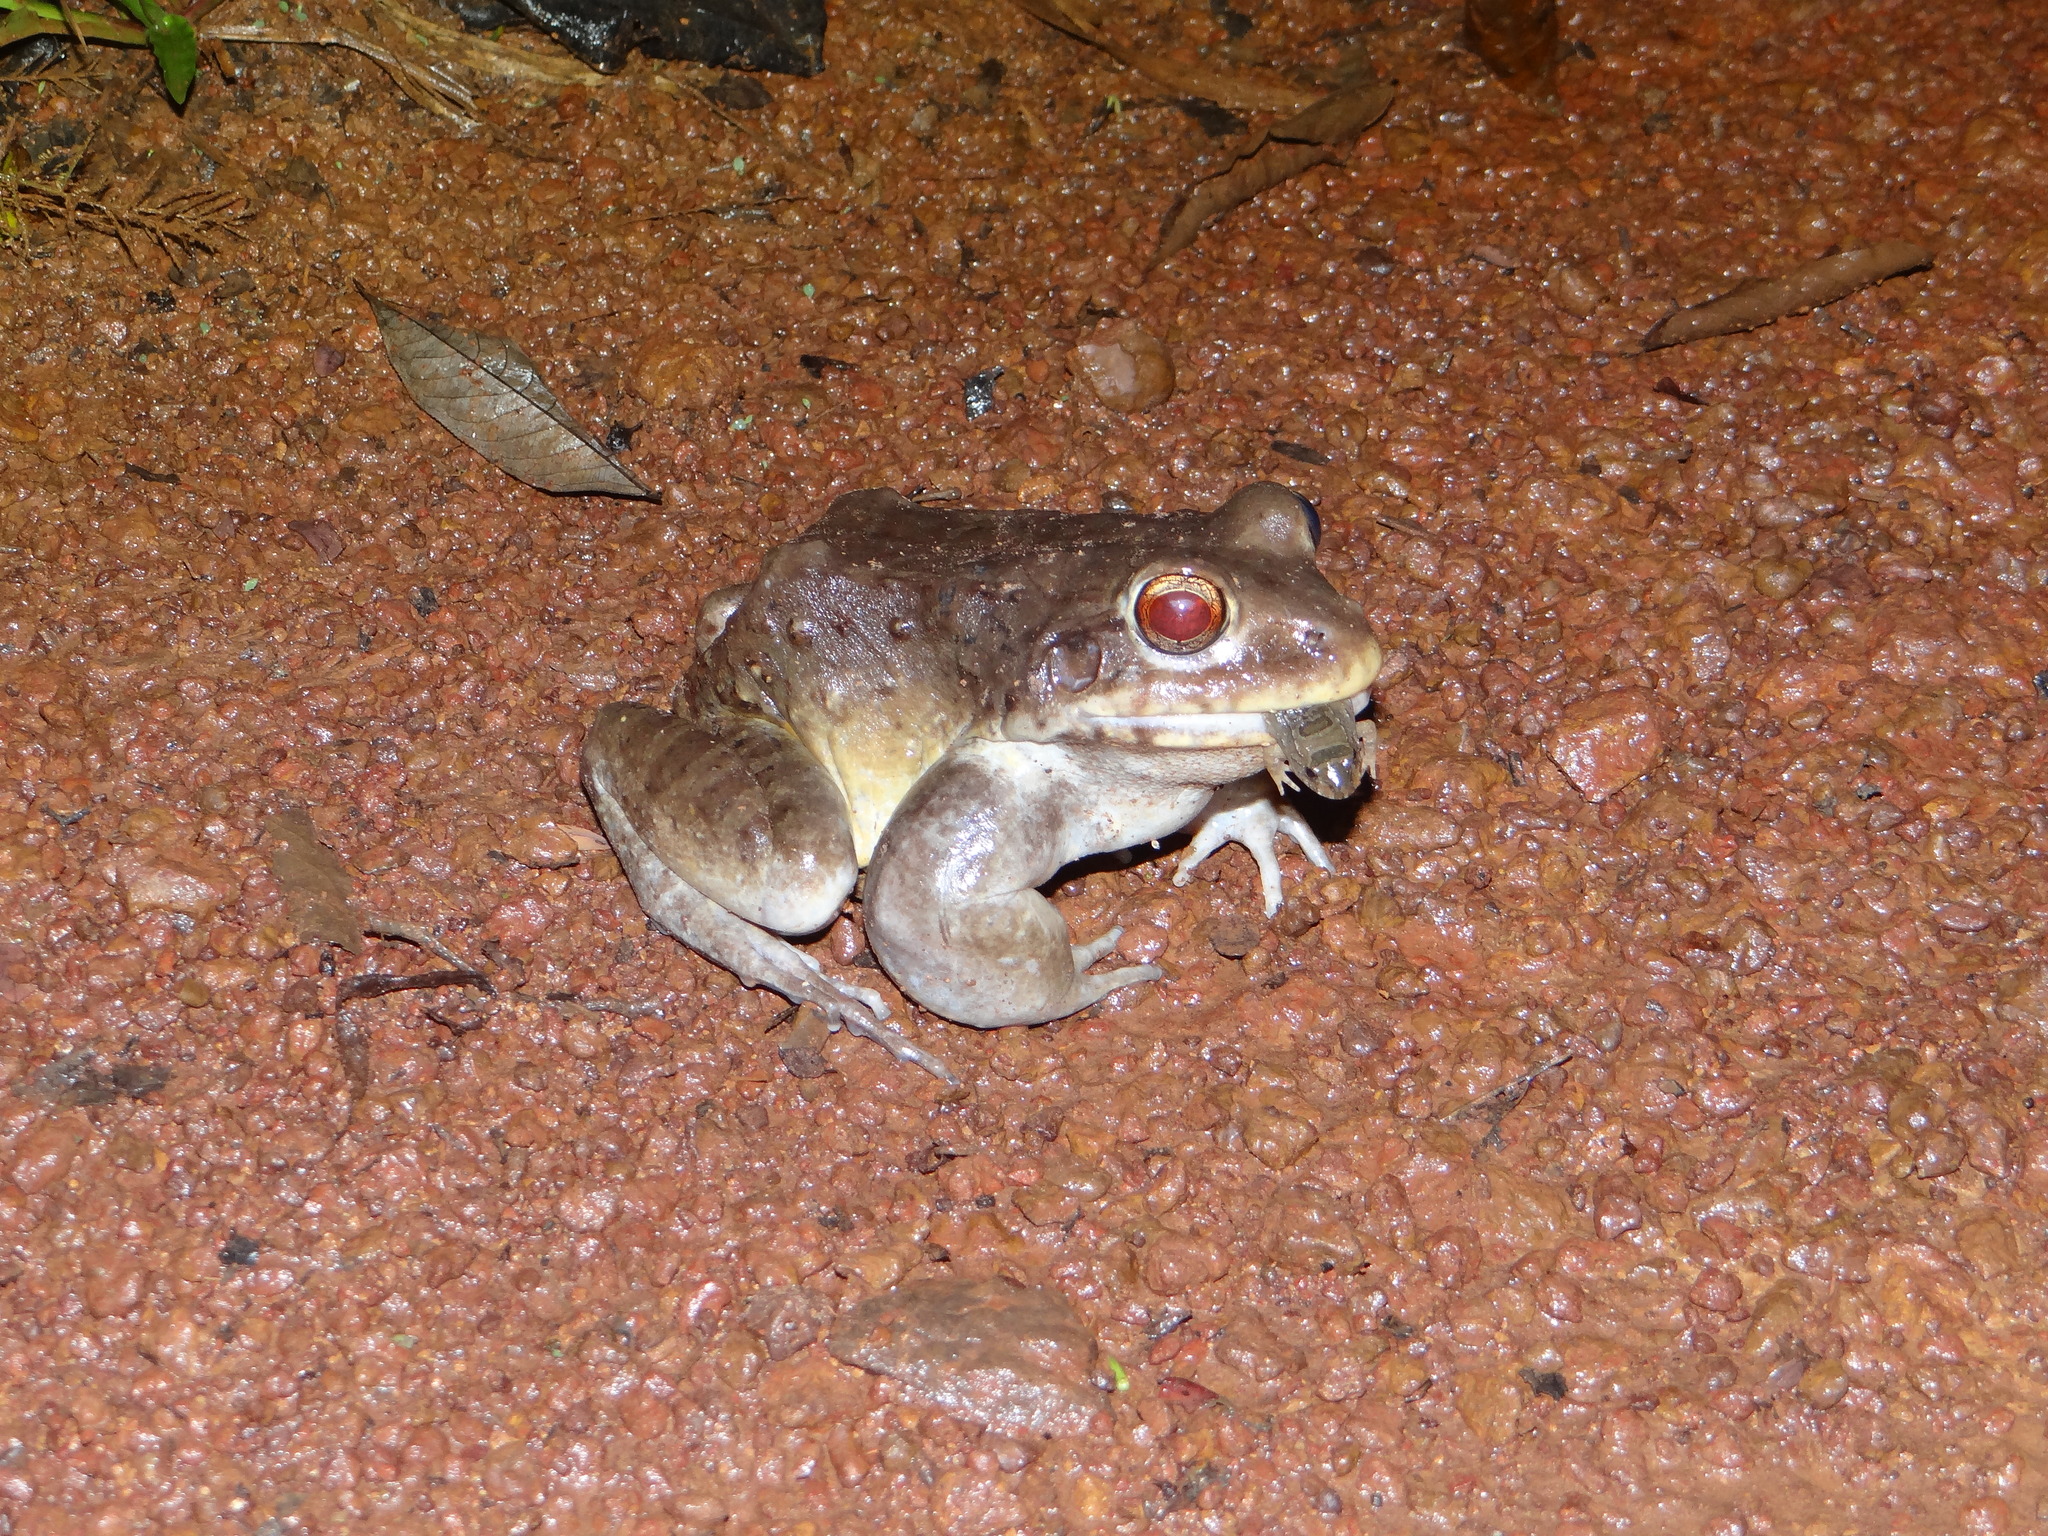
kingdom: Animalia
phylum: Chordata
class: Amphibia
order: Anura
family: Leptodactylidae
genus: Leptodactylus
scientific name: Leptodactylus knudseni
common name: Knudsen's frog
